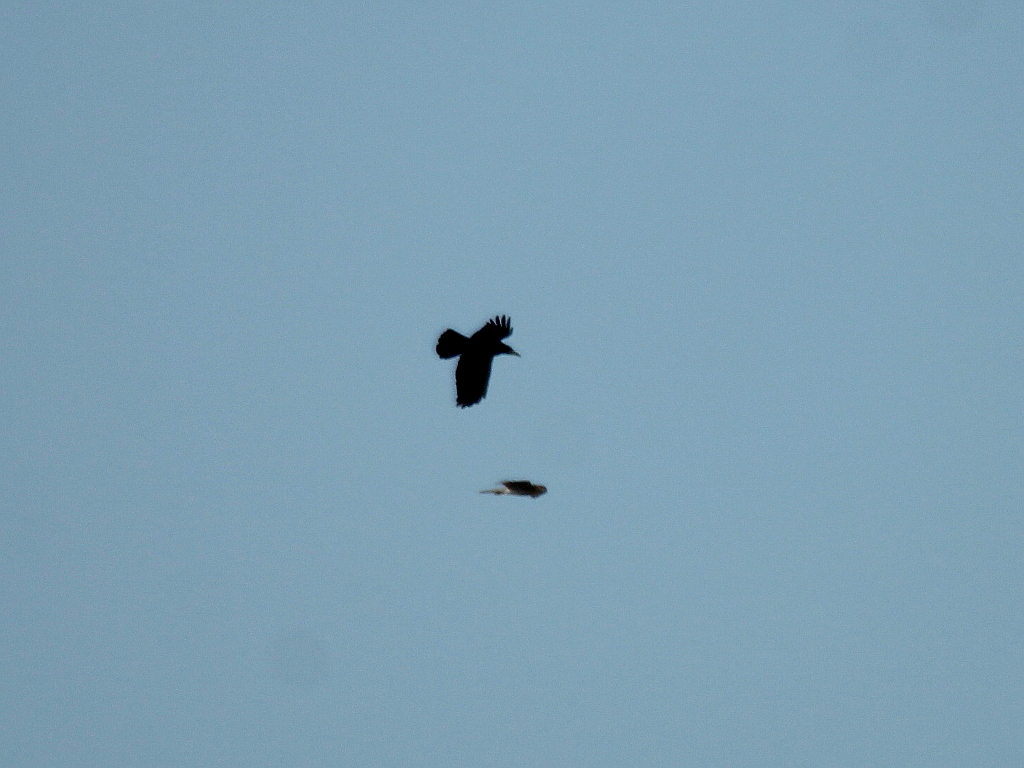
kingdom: Animalia
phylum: Chordata
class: Aves
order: Accipitriformes
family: Accipitridae
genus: Accipiter
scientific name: Accipiter nisus
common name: Eurasian sparrowhawk
